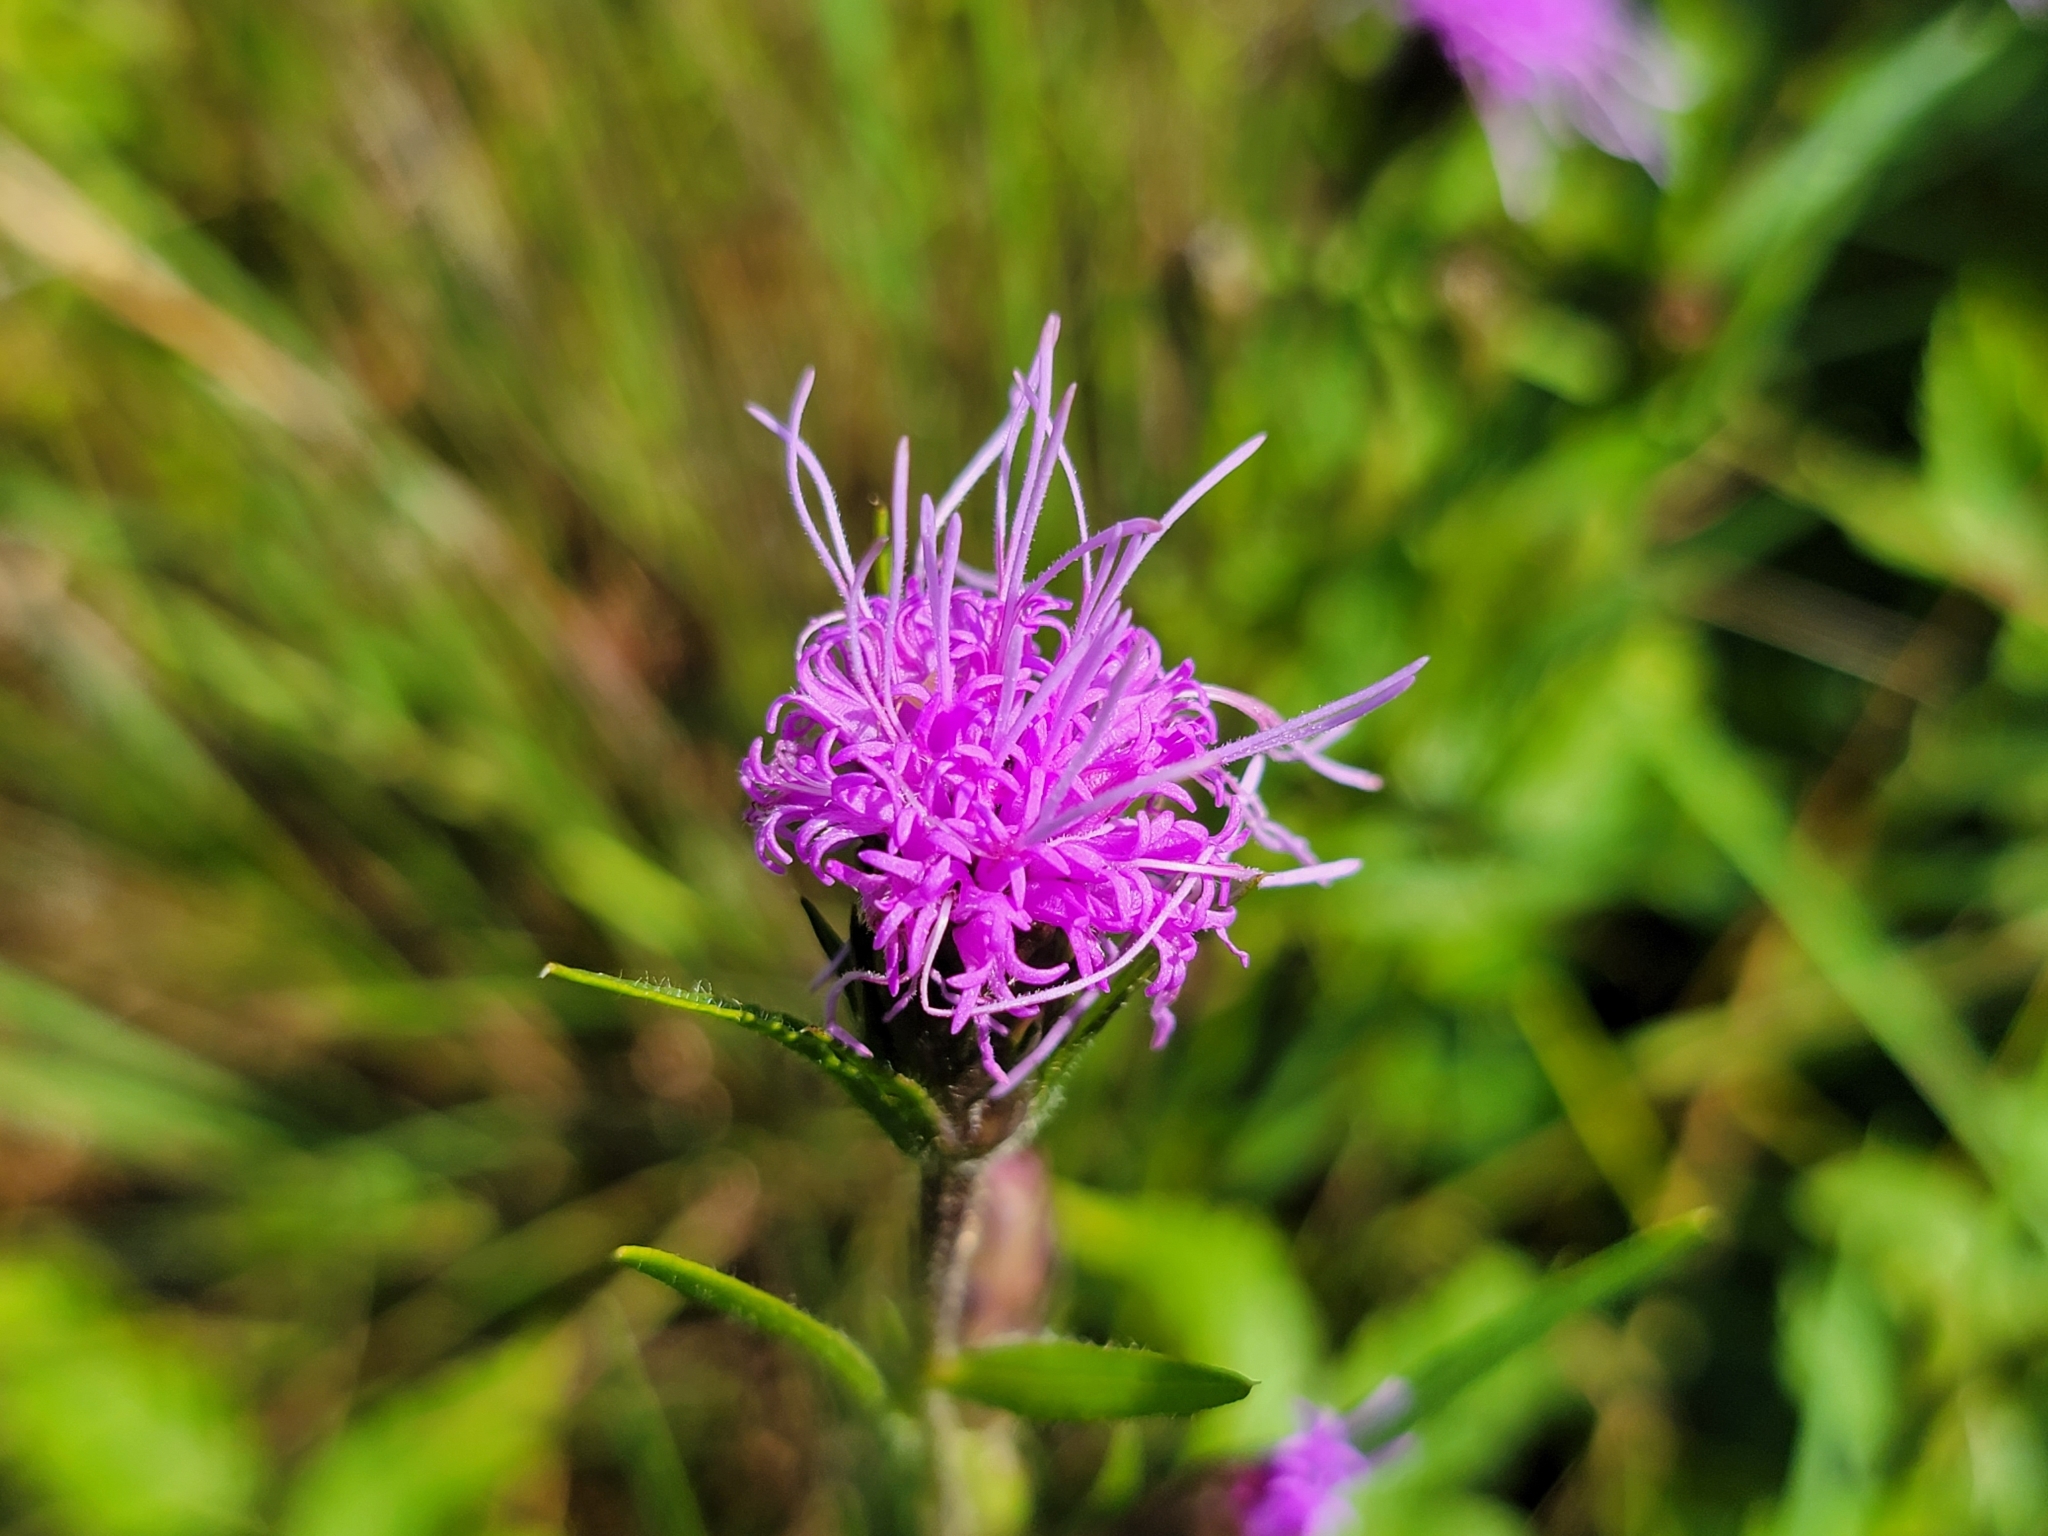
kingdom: Plantae
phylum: Tracheophyta
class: Magnoliopsida
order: Asterales
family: Asteraceae
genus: Liatris
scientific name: Liatris squarrosa
